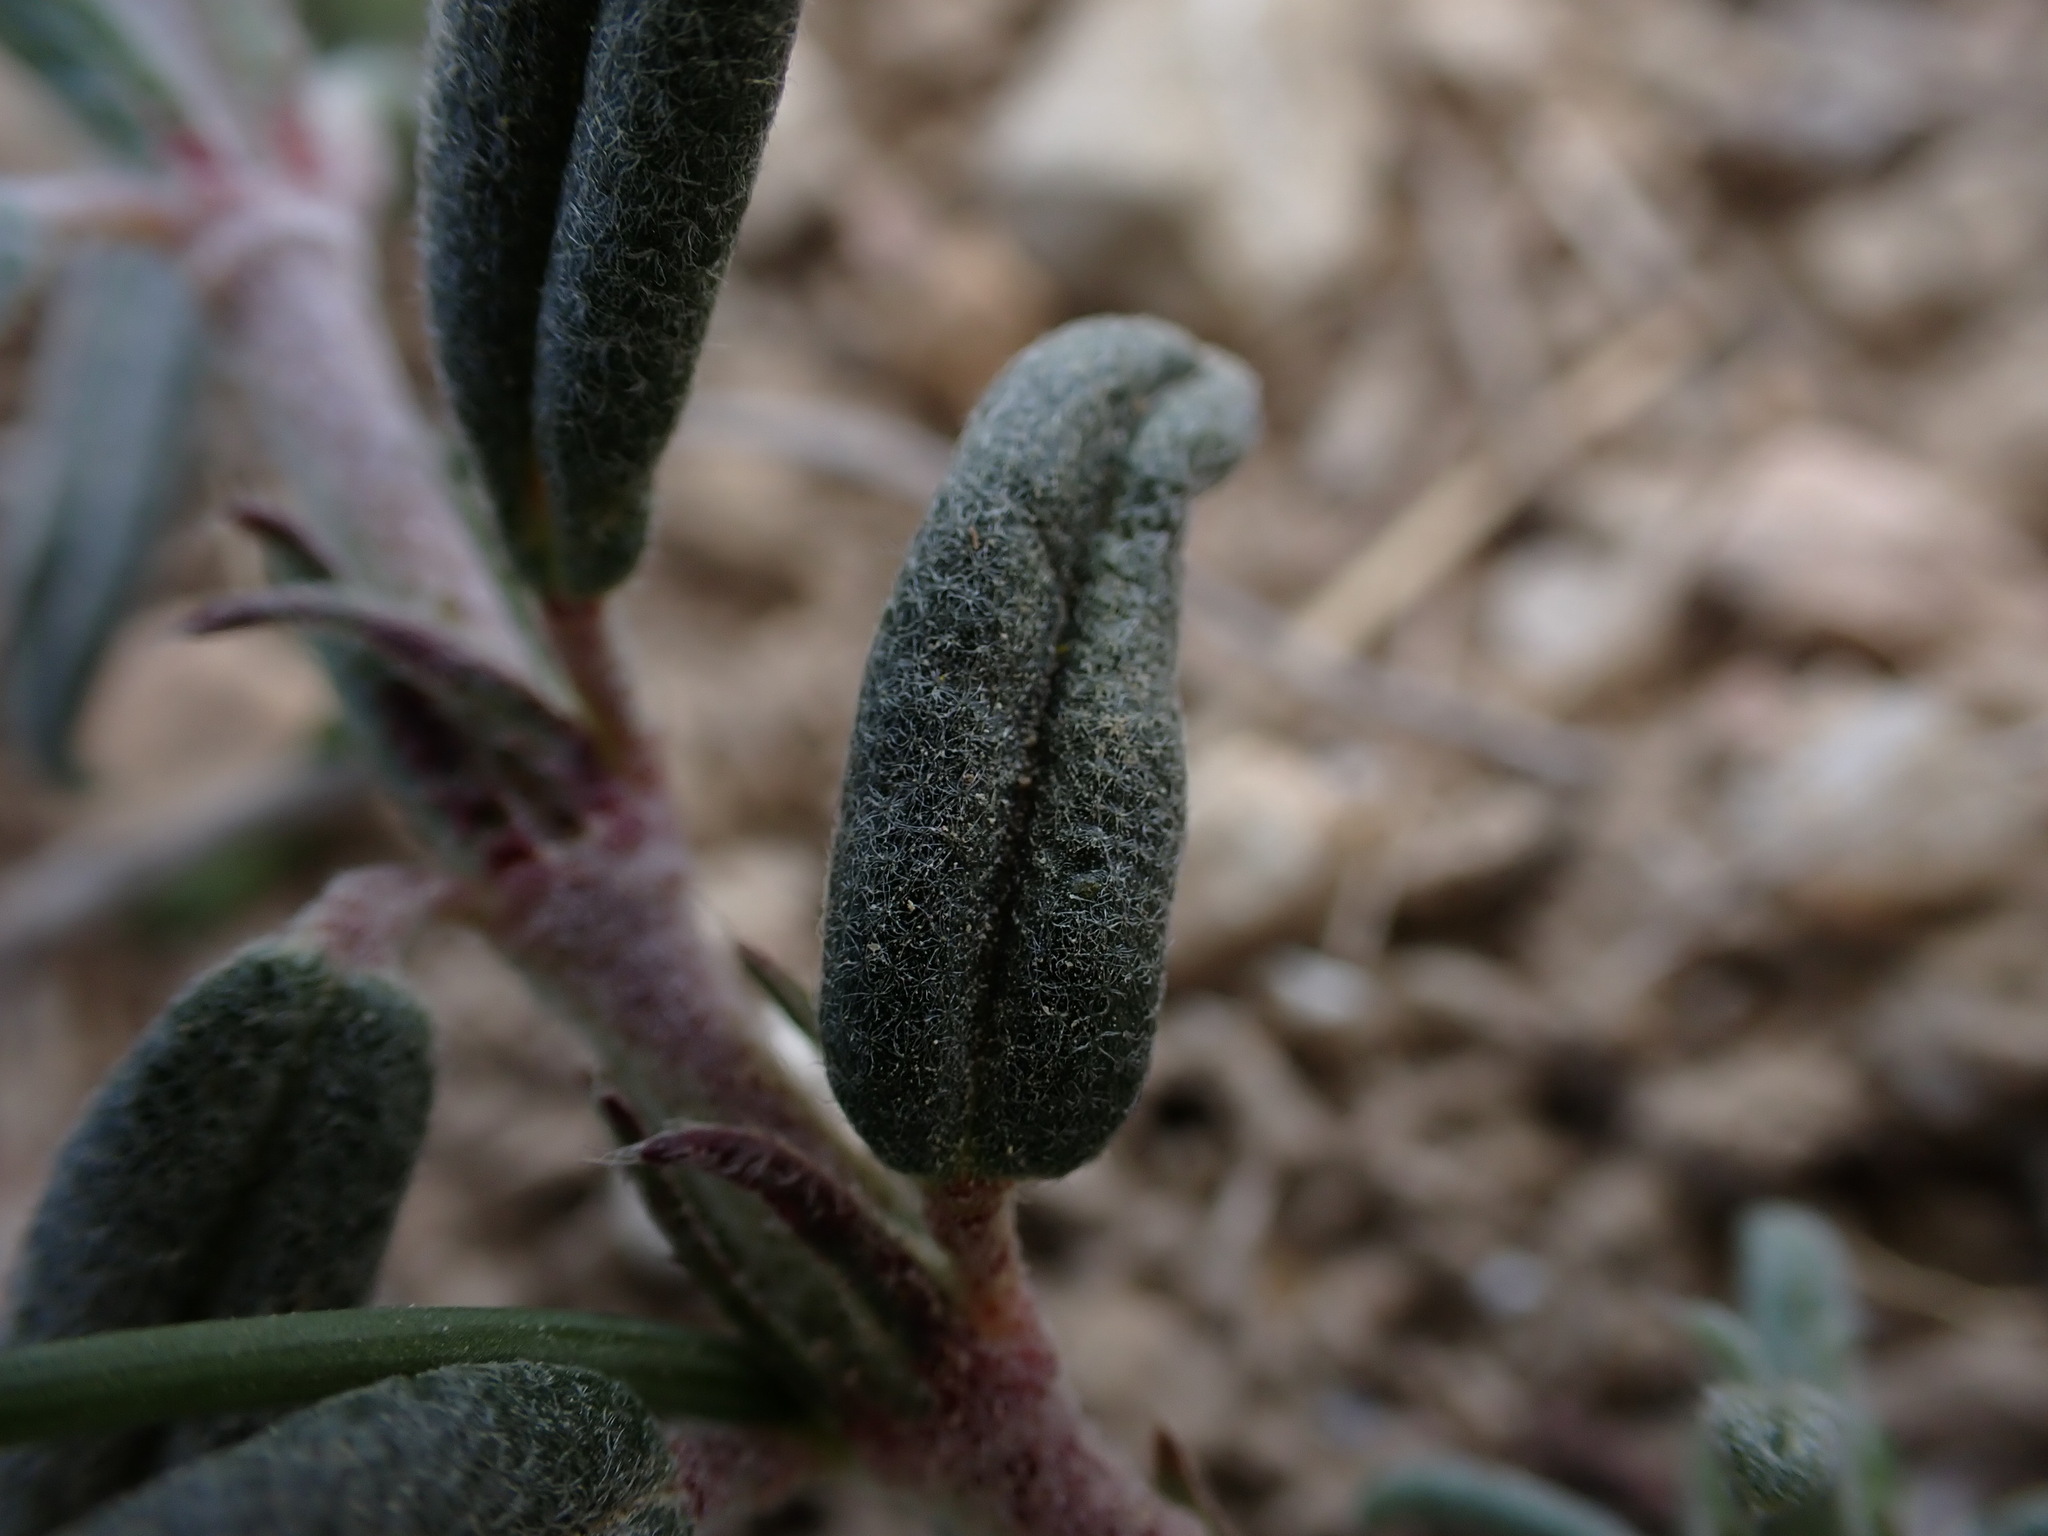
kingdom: Plantae
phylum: Tracheophyta
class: Magnoliopsida
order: Malvales
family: Cistaceae
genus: Helianthemum
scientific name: Helianthemum apenninum
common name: White rock-rose
